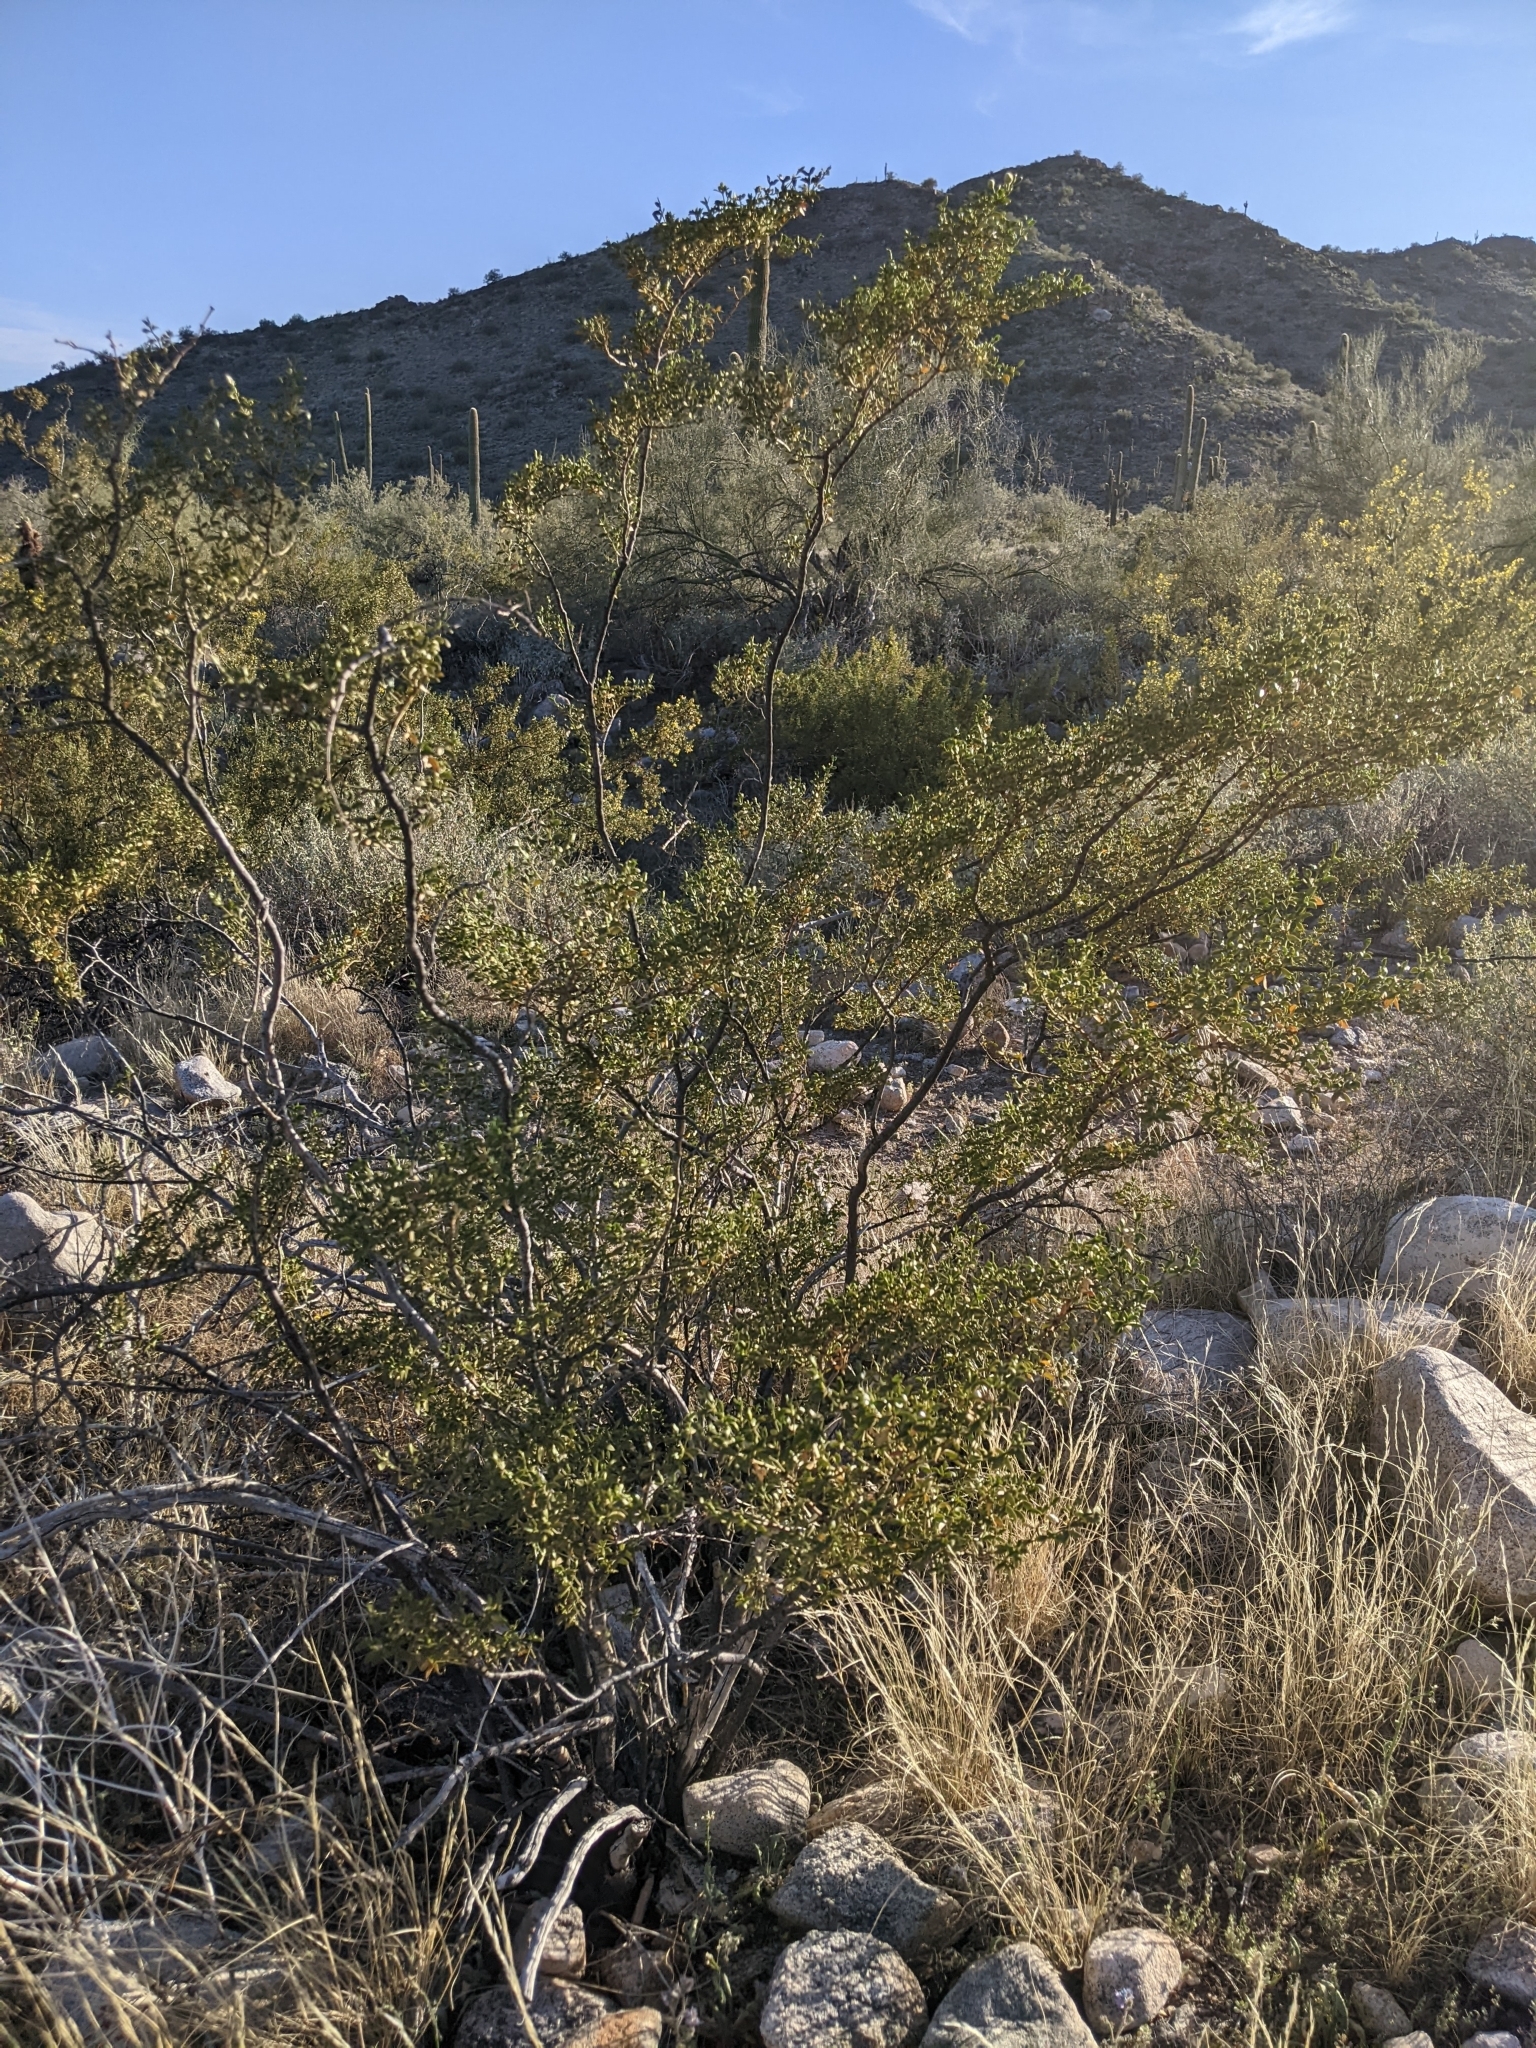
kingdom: Plantae
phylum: Tracheophyta
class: Magnoliopsida
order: Zygophyllales
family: Zygophyllaceae
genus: Larrea
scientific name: Larrea tridentata
